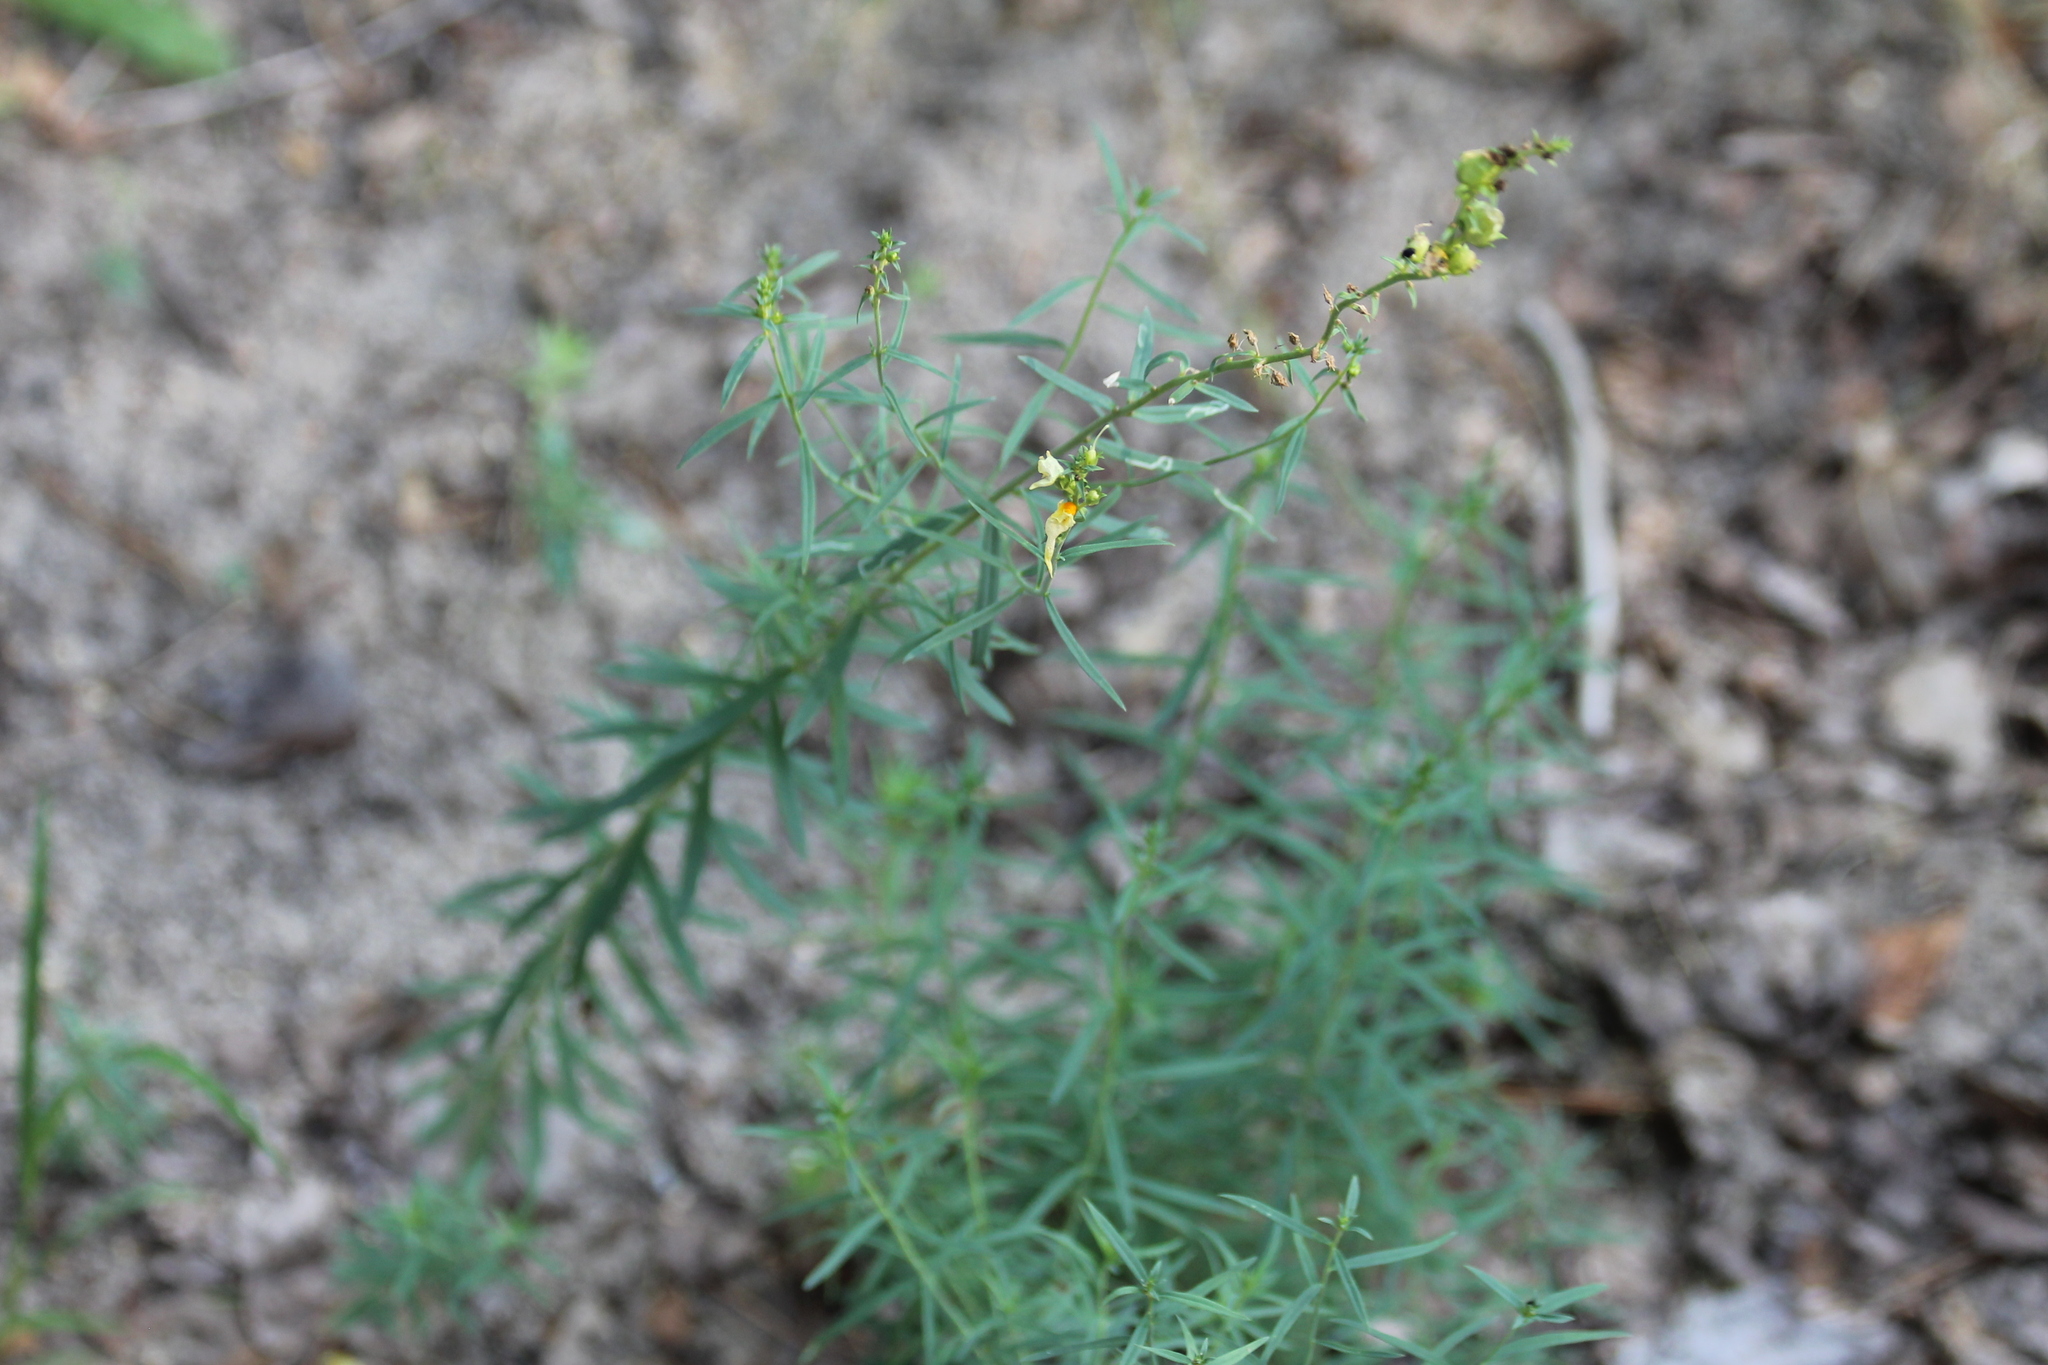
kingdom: Plantae
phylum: Tracheophyta
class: Magnoliopsida
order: Lamiales
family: Plantaginaceae
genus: Linaria
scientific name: Linaria vulgaris
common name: Butter and eggs
